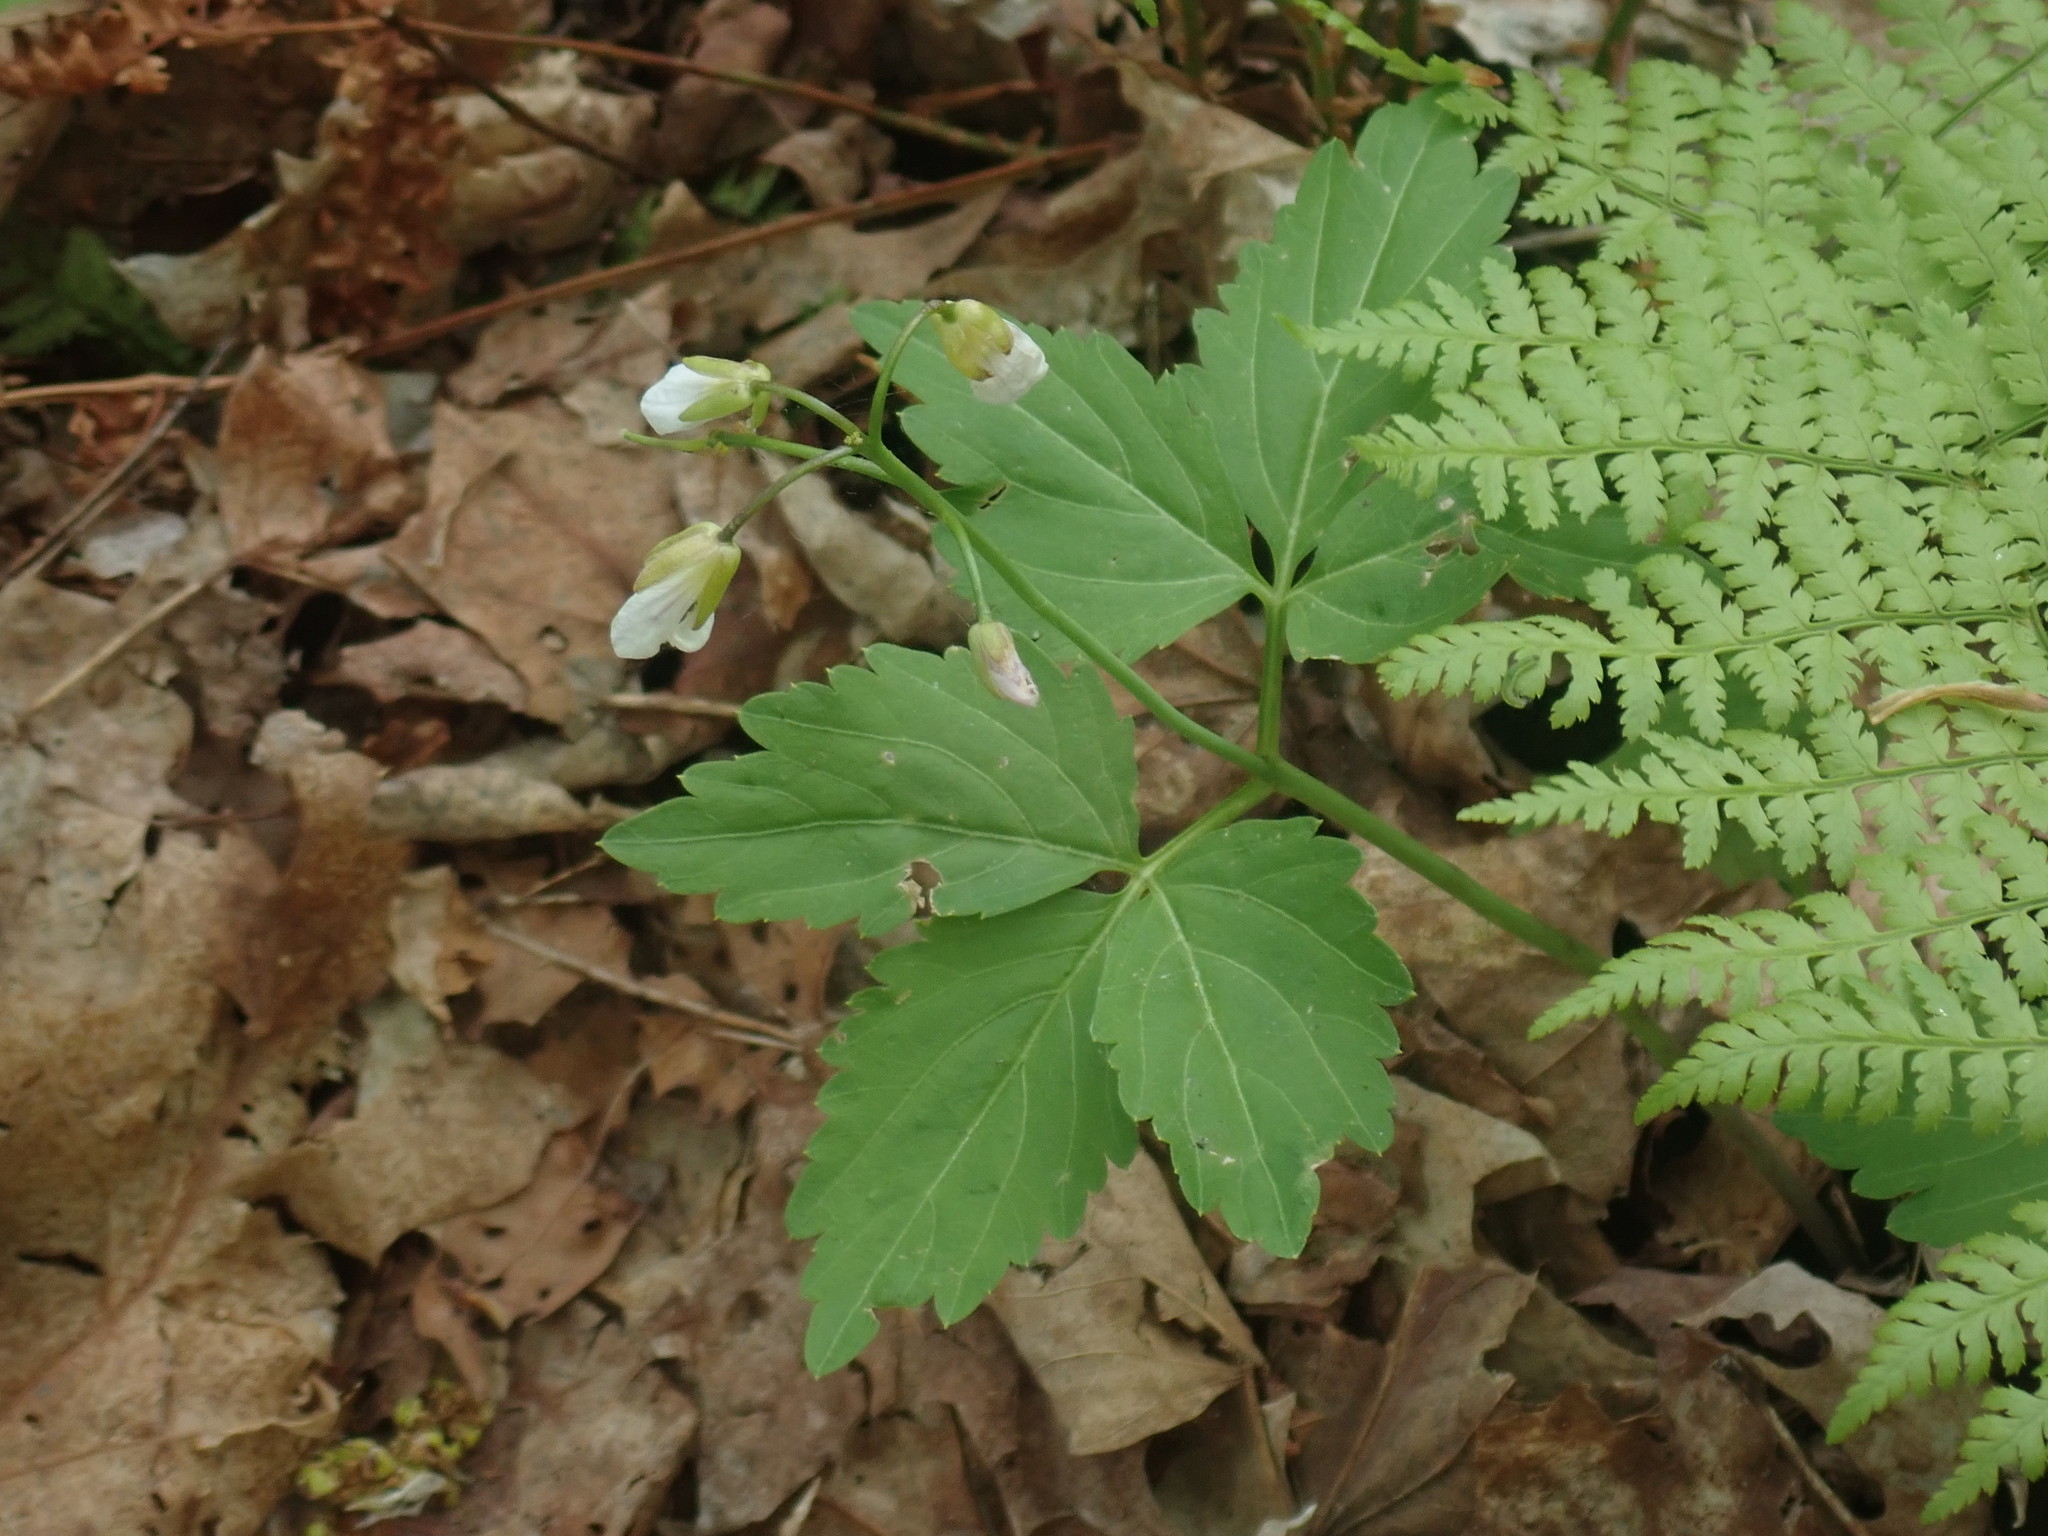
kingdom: Plantae
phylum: Tracheophyta
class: Magnoliopsida
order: Brassicales
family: Brassicaceae
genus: Cardamine
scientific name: Cardamine diphylla
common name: Broad-leaved toothwort
